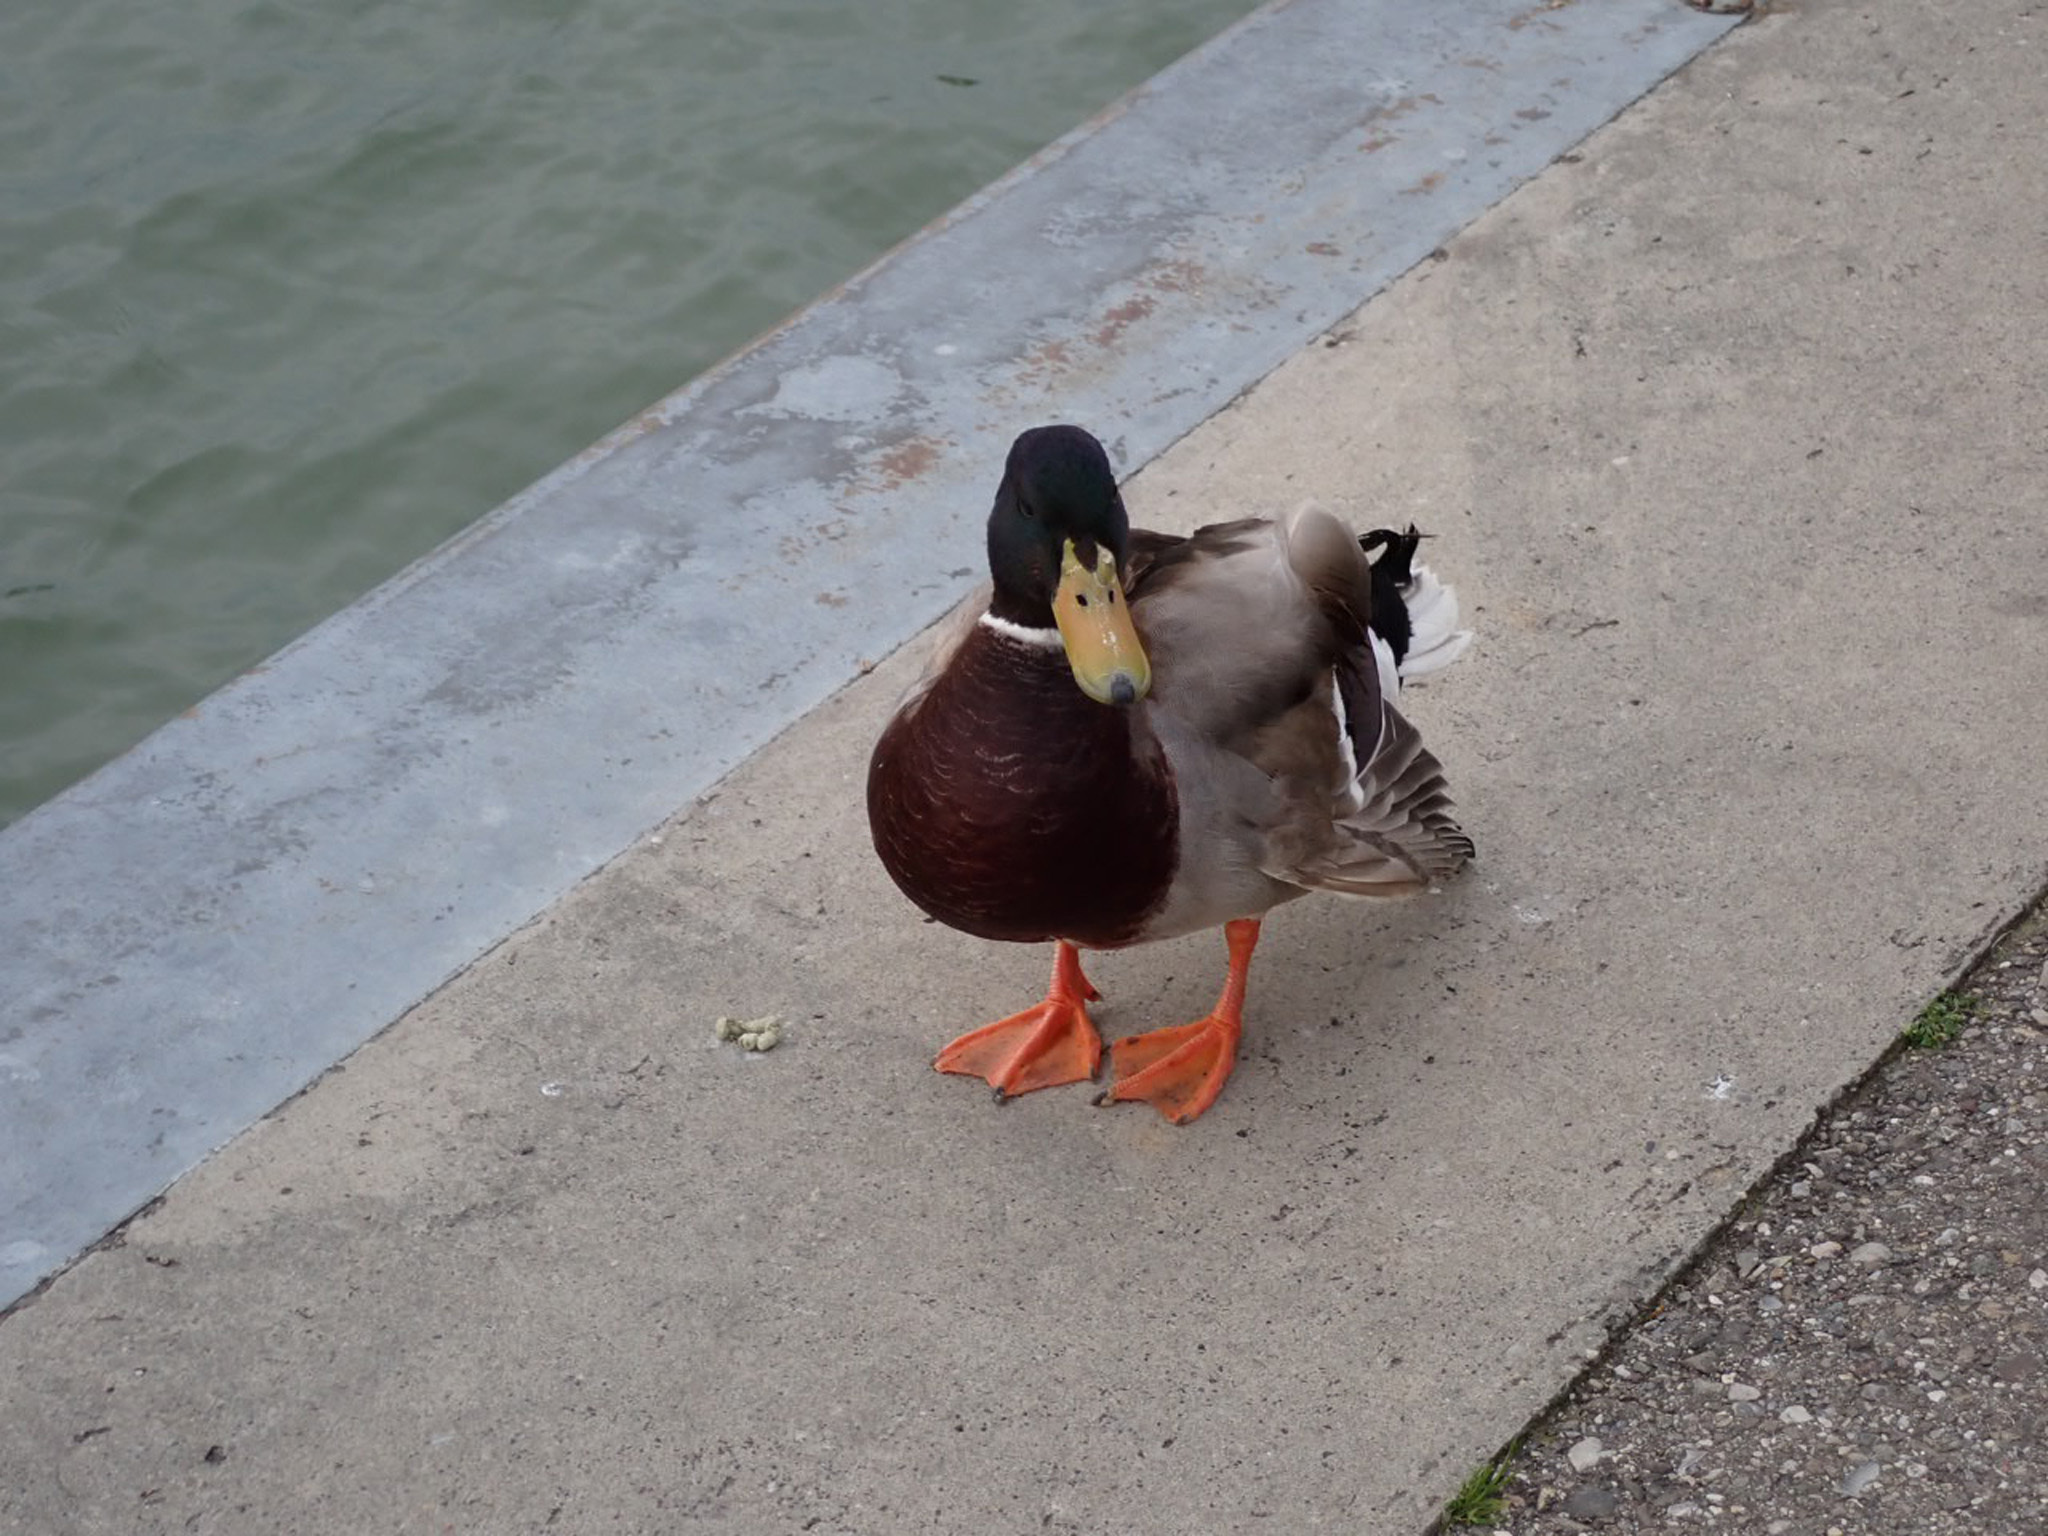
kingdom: Animalia
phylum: Chordata
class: Aves
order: Anseriformes
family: Anatidae
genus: Anas
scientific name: Anas platyrhynchos
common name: Mallard
